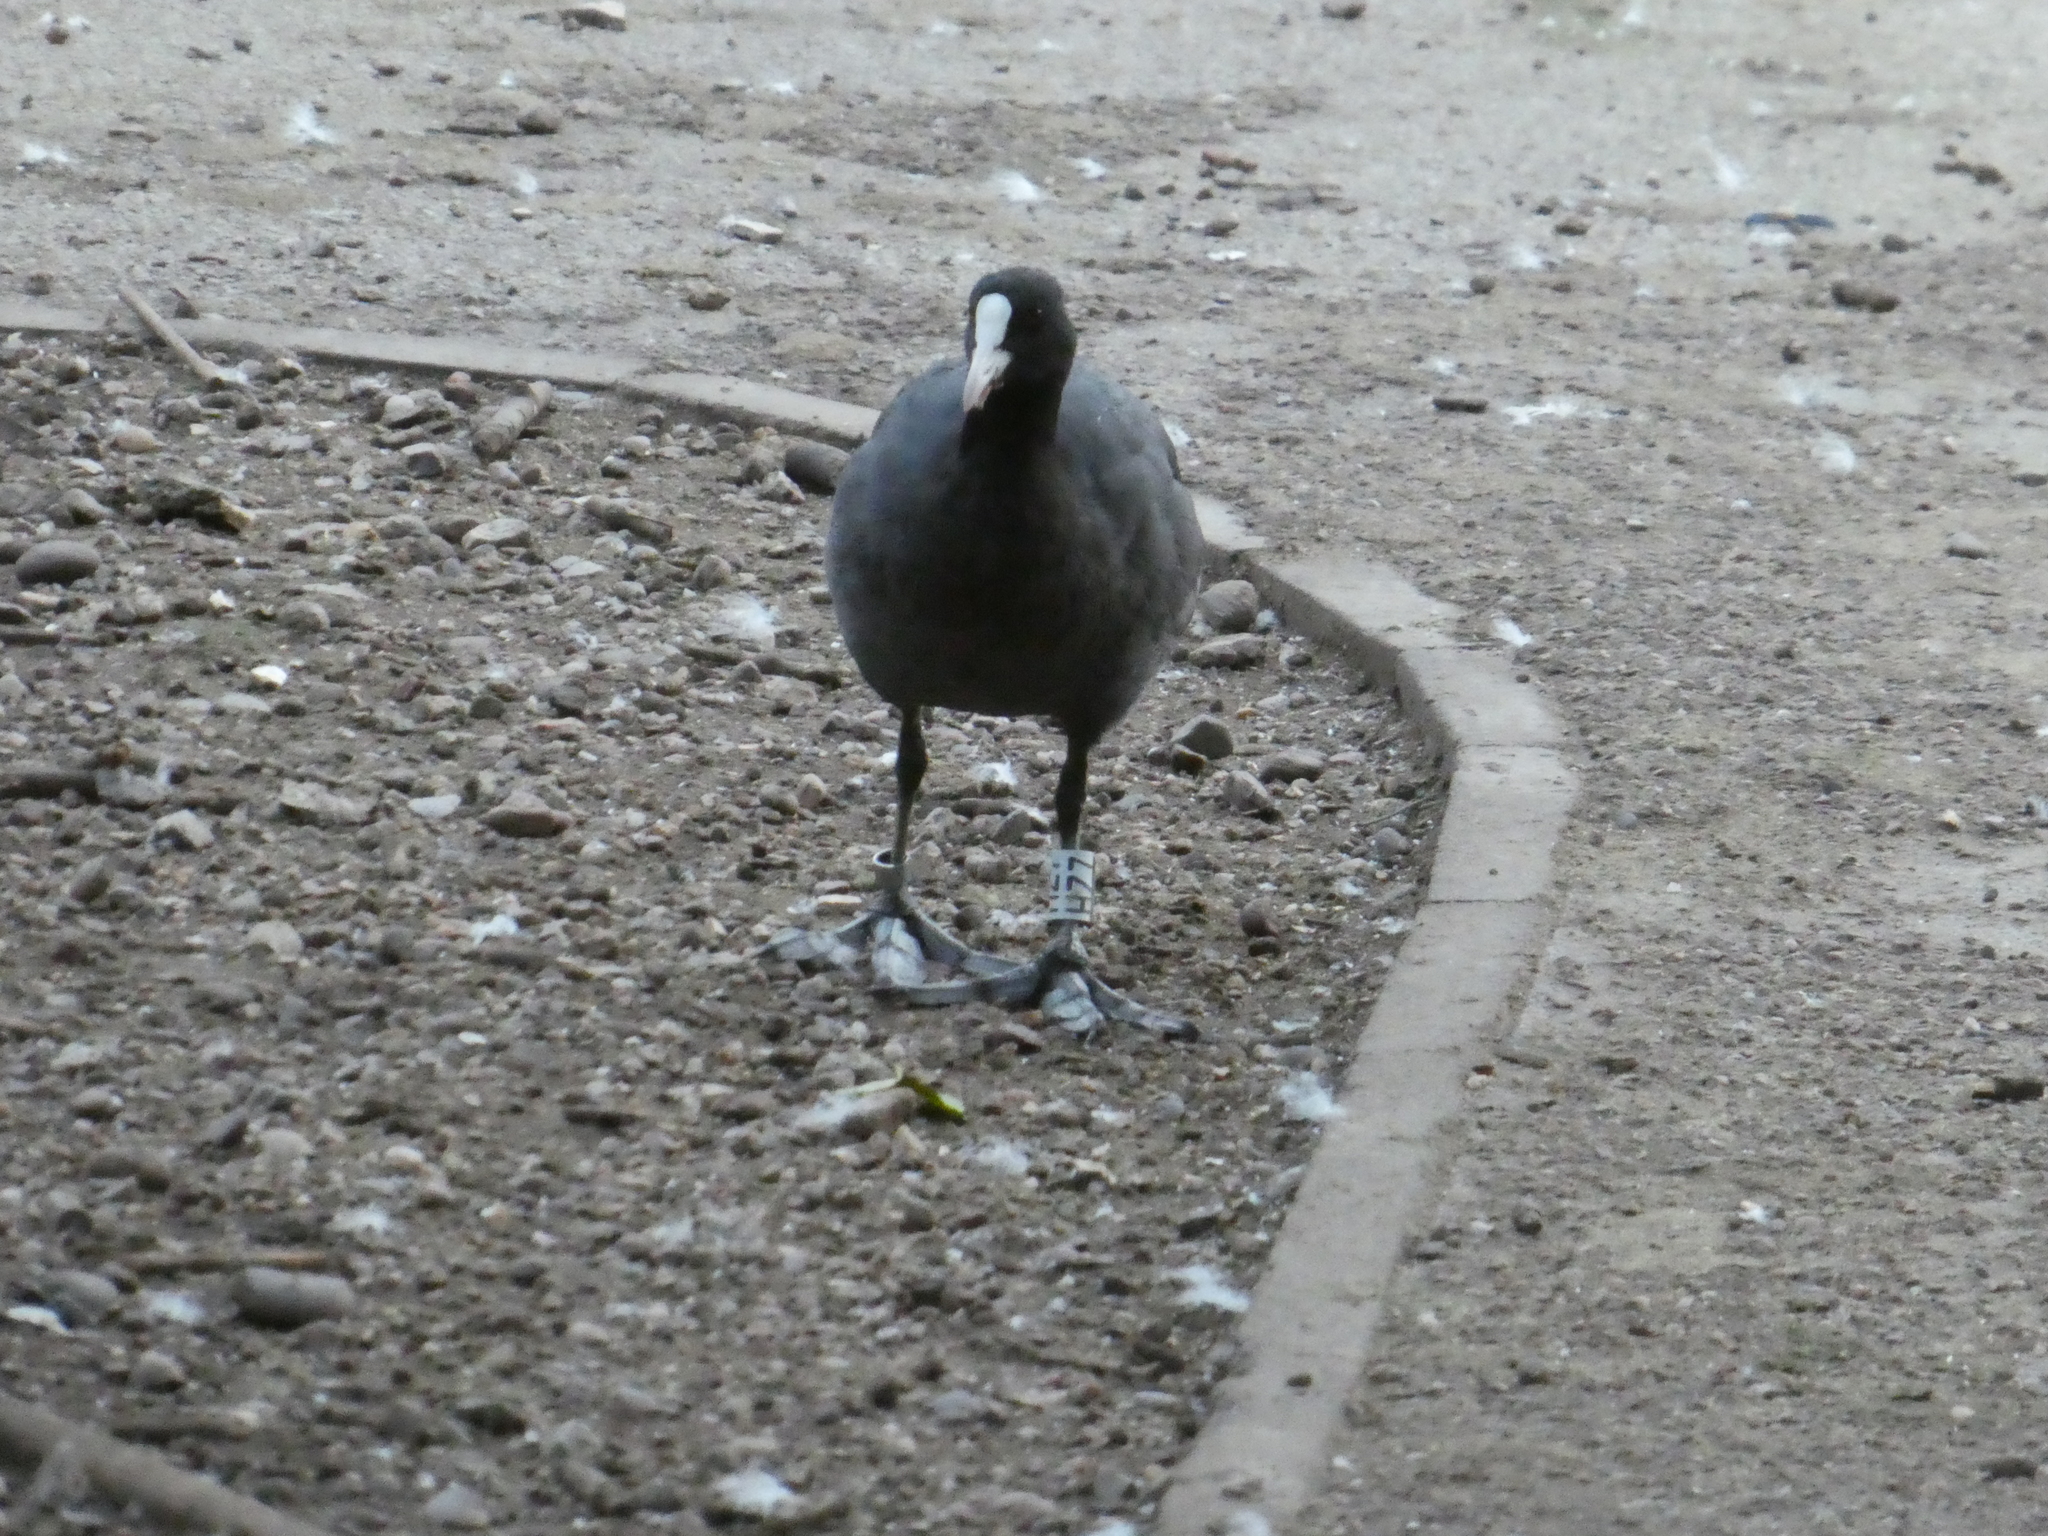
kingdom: Animalia
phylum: Chordata
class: Aves
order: Gruiformes
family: Rallidae
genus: Fulica
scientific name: Fulica atra
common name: Eurasian coot
